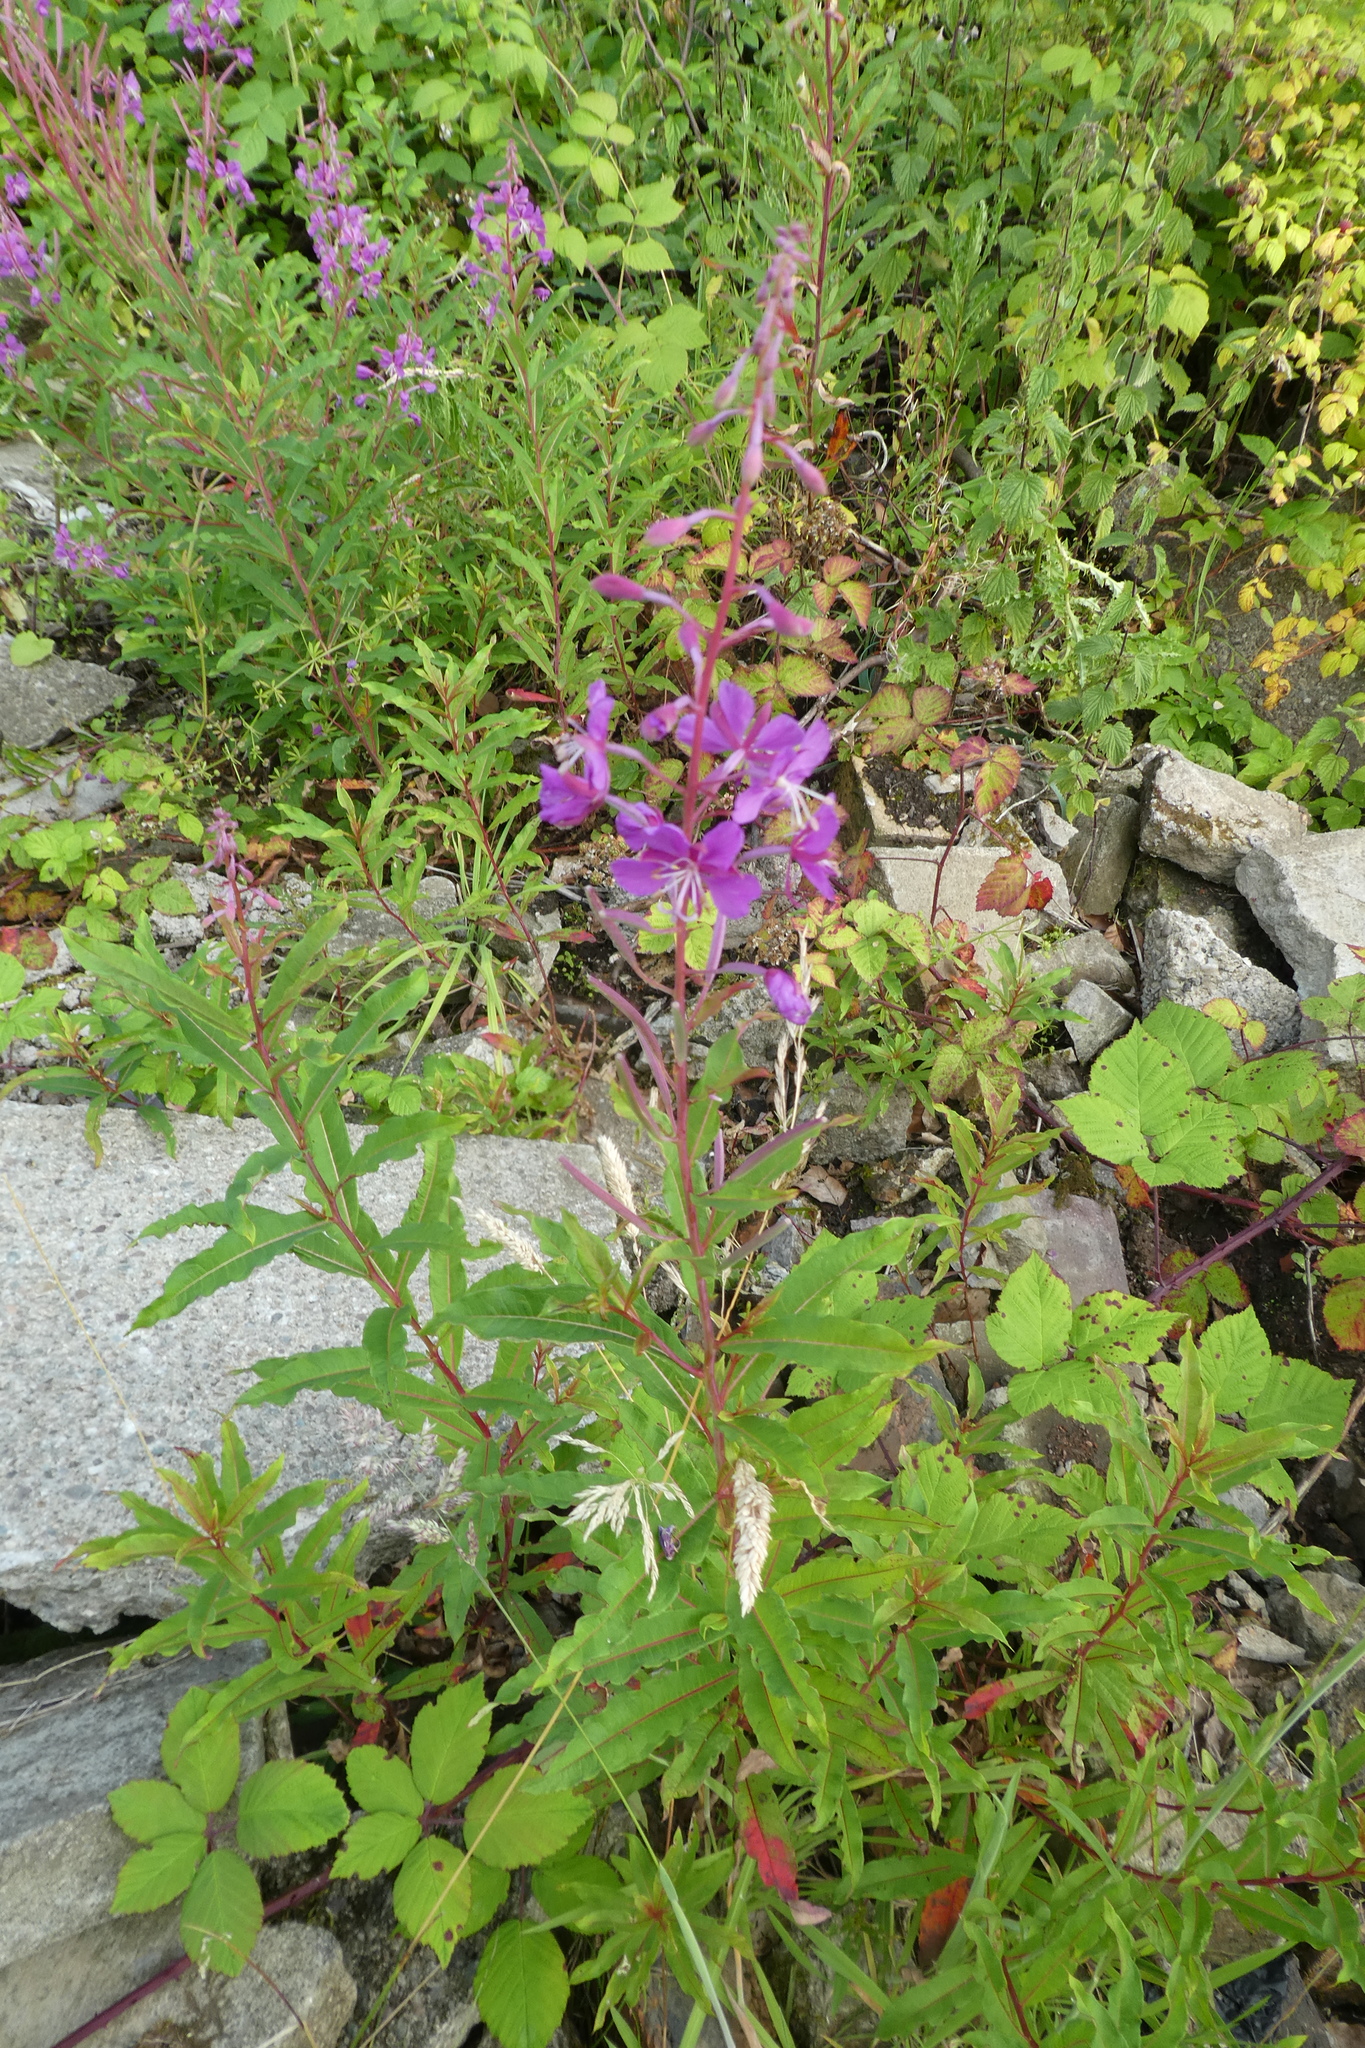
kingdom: Plantae
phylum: Tracheophyta
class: Magnoliopsida
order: Myrtales
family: Onagraceae
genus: Chamaenerion
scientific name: Chamaenerion angustifolium
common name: Fireweed
